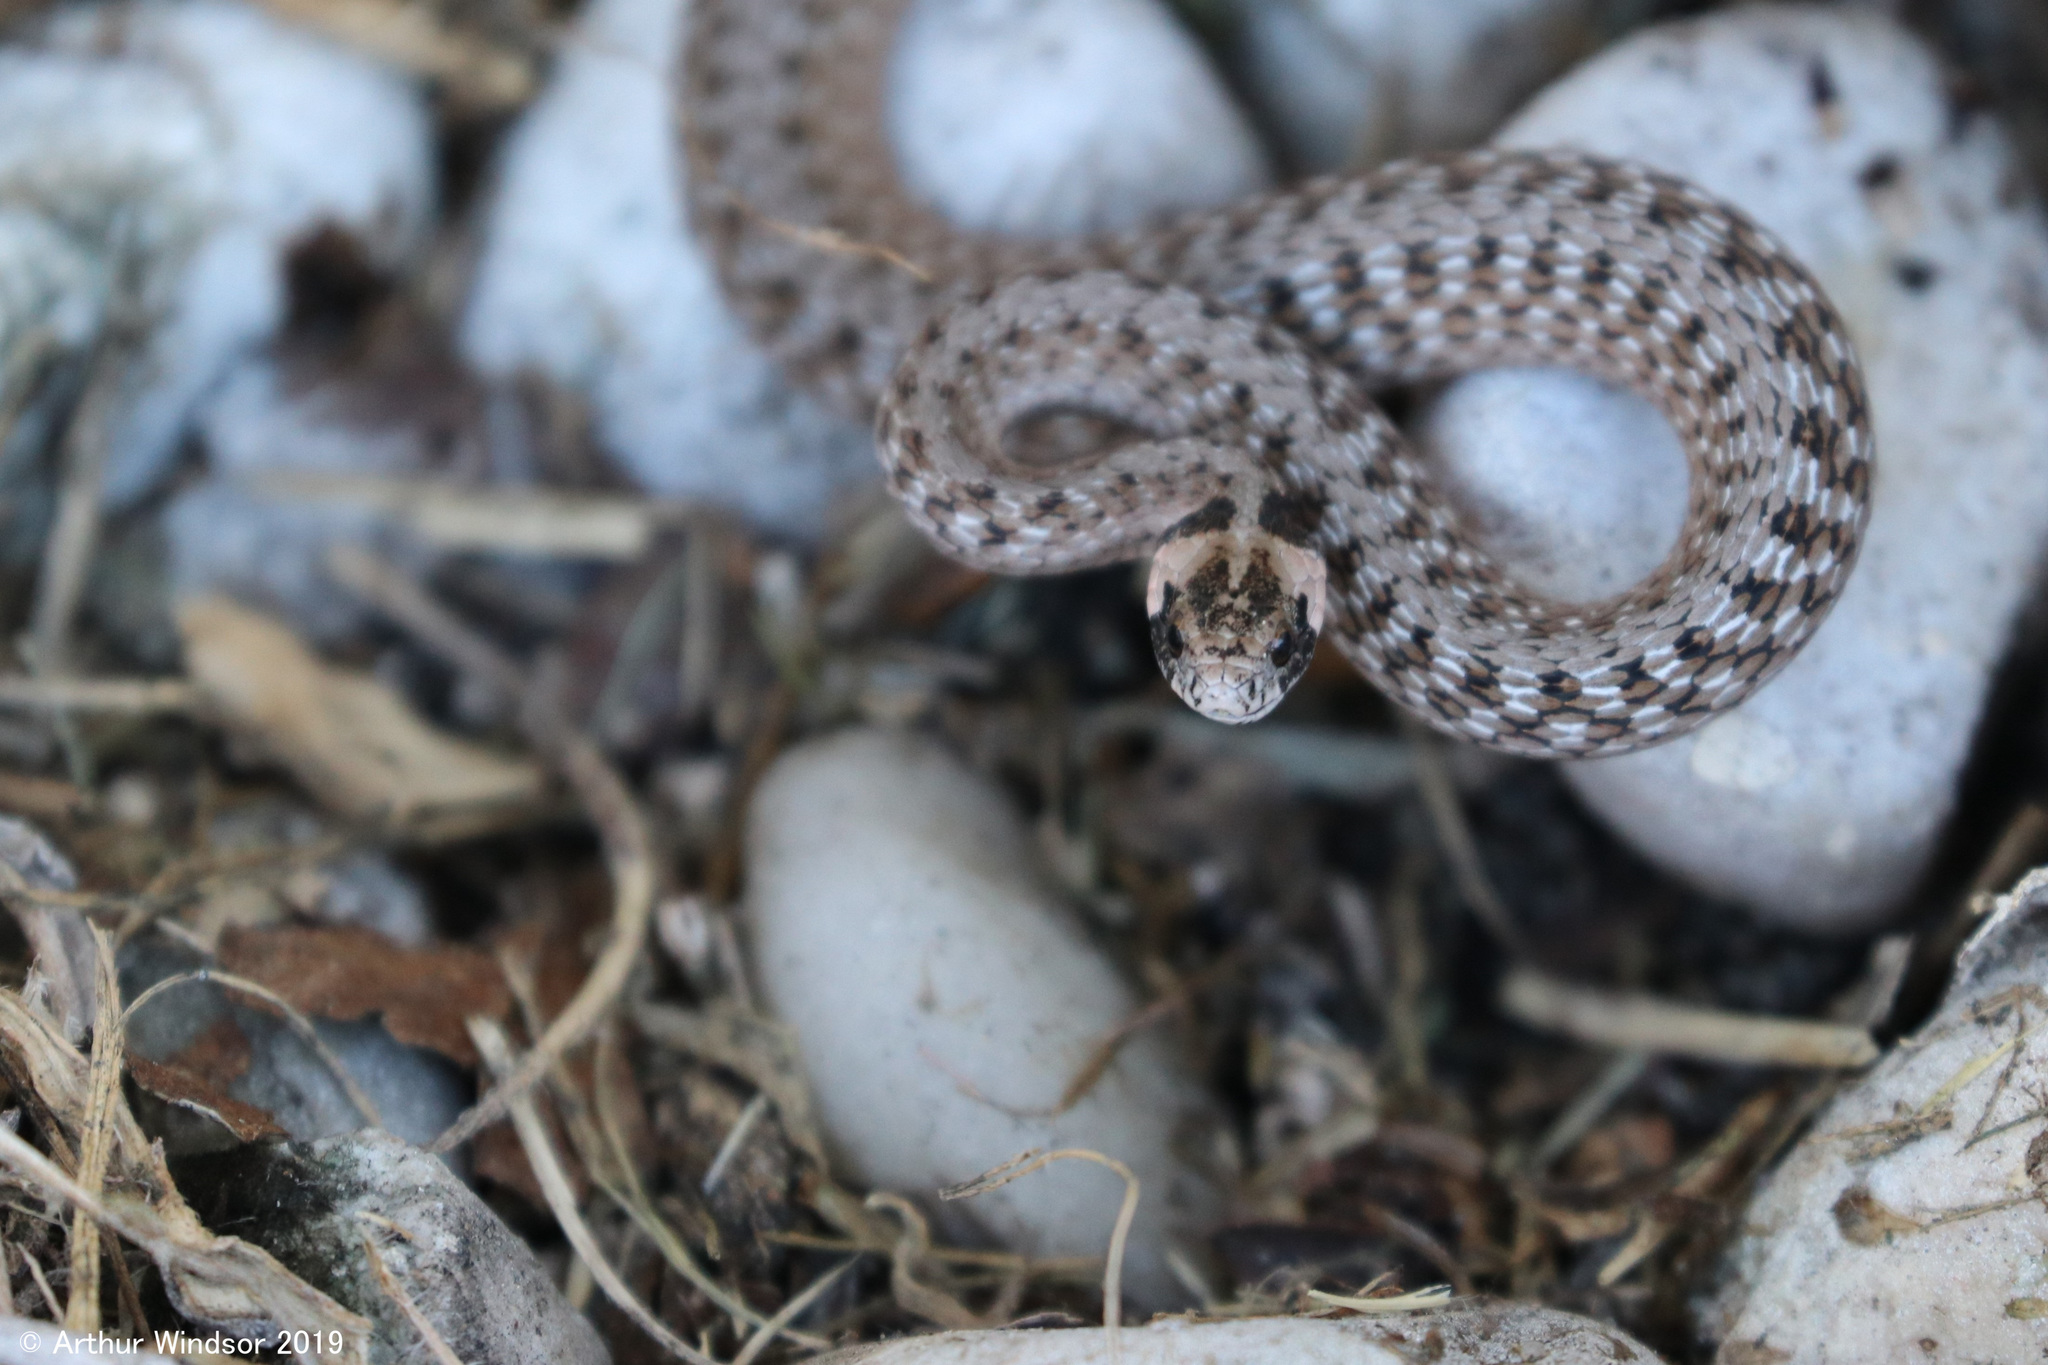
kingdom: Animalia
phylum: Chordata
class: Squamata
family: Colubridae
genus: Storeria
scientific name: Storeria victa
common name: Florida brown snake
